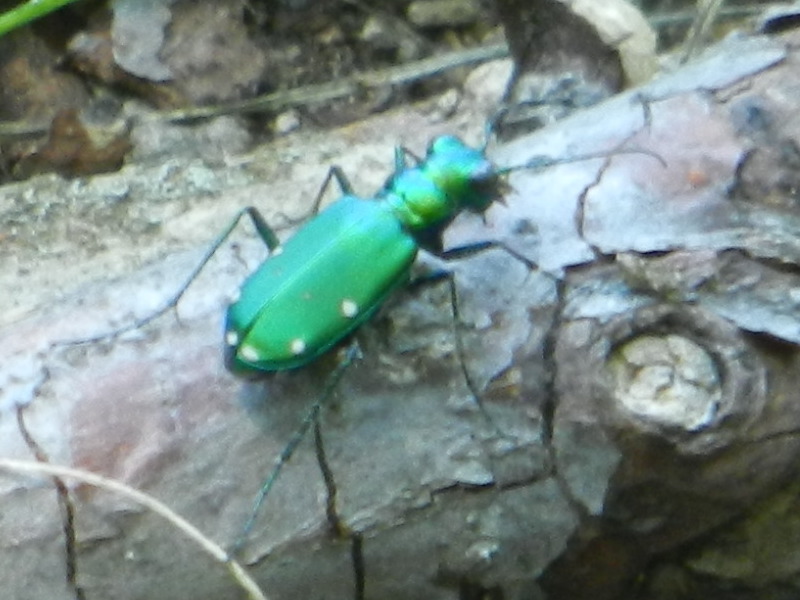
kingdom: Animalia
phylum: Arthropoda
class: Insecta
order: Coleoptera
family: Carabidae
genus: Cicindela
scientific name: Cicindela sexguttata
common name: Six-spotted tiger beetle
